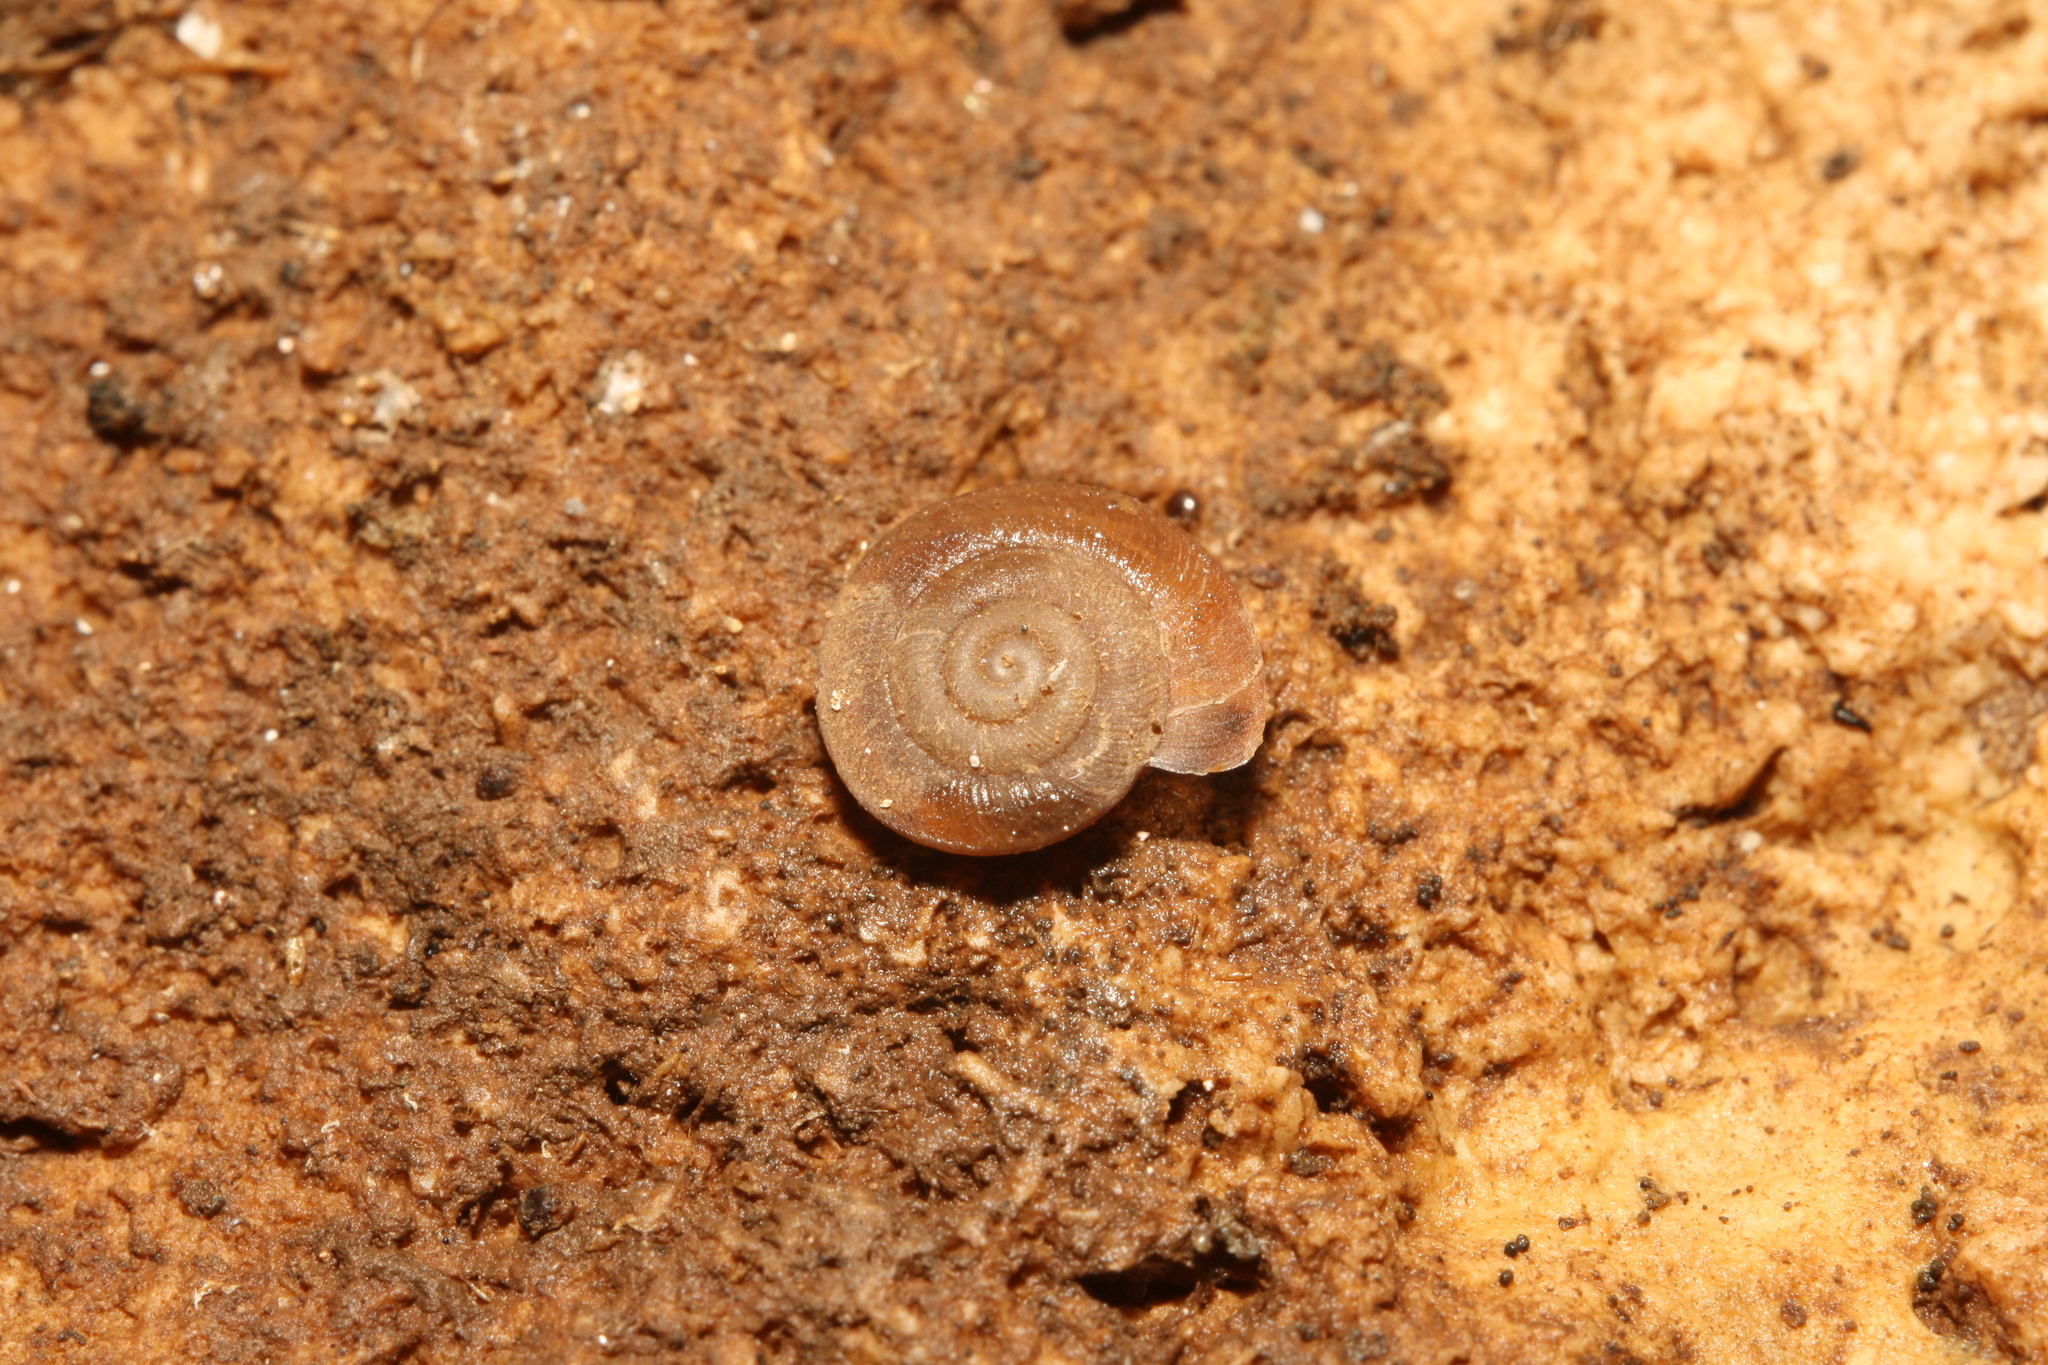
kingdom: Animalia
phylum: Mollusca
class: Gastropoda
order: Stylommatophora
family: Trissexodontidae
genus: Caracollina
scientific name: Caracollina lenticula
